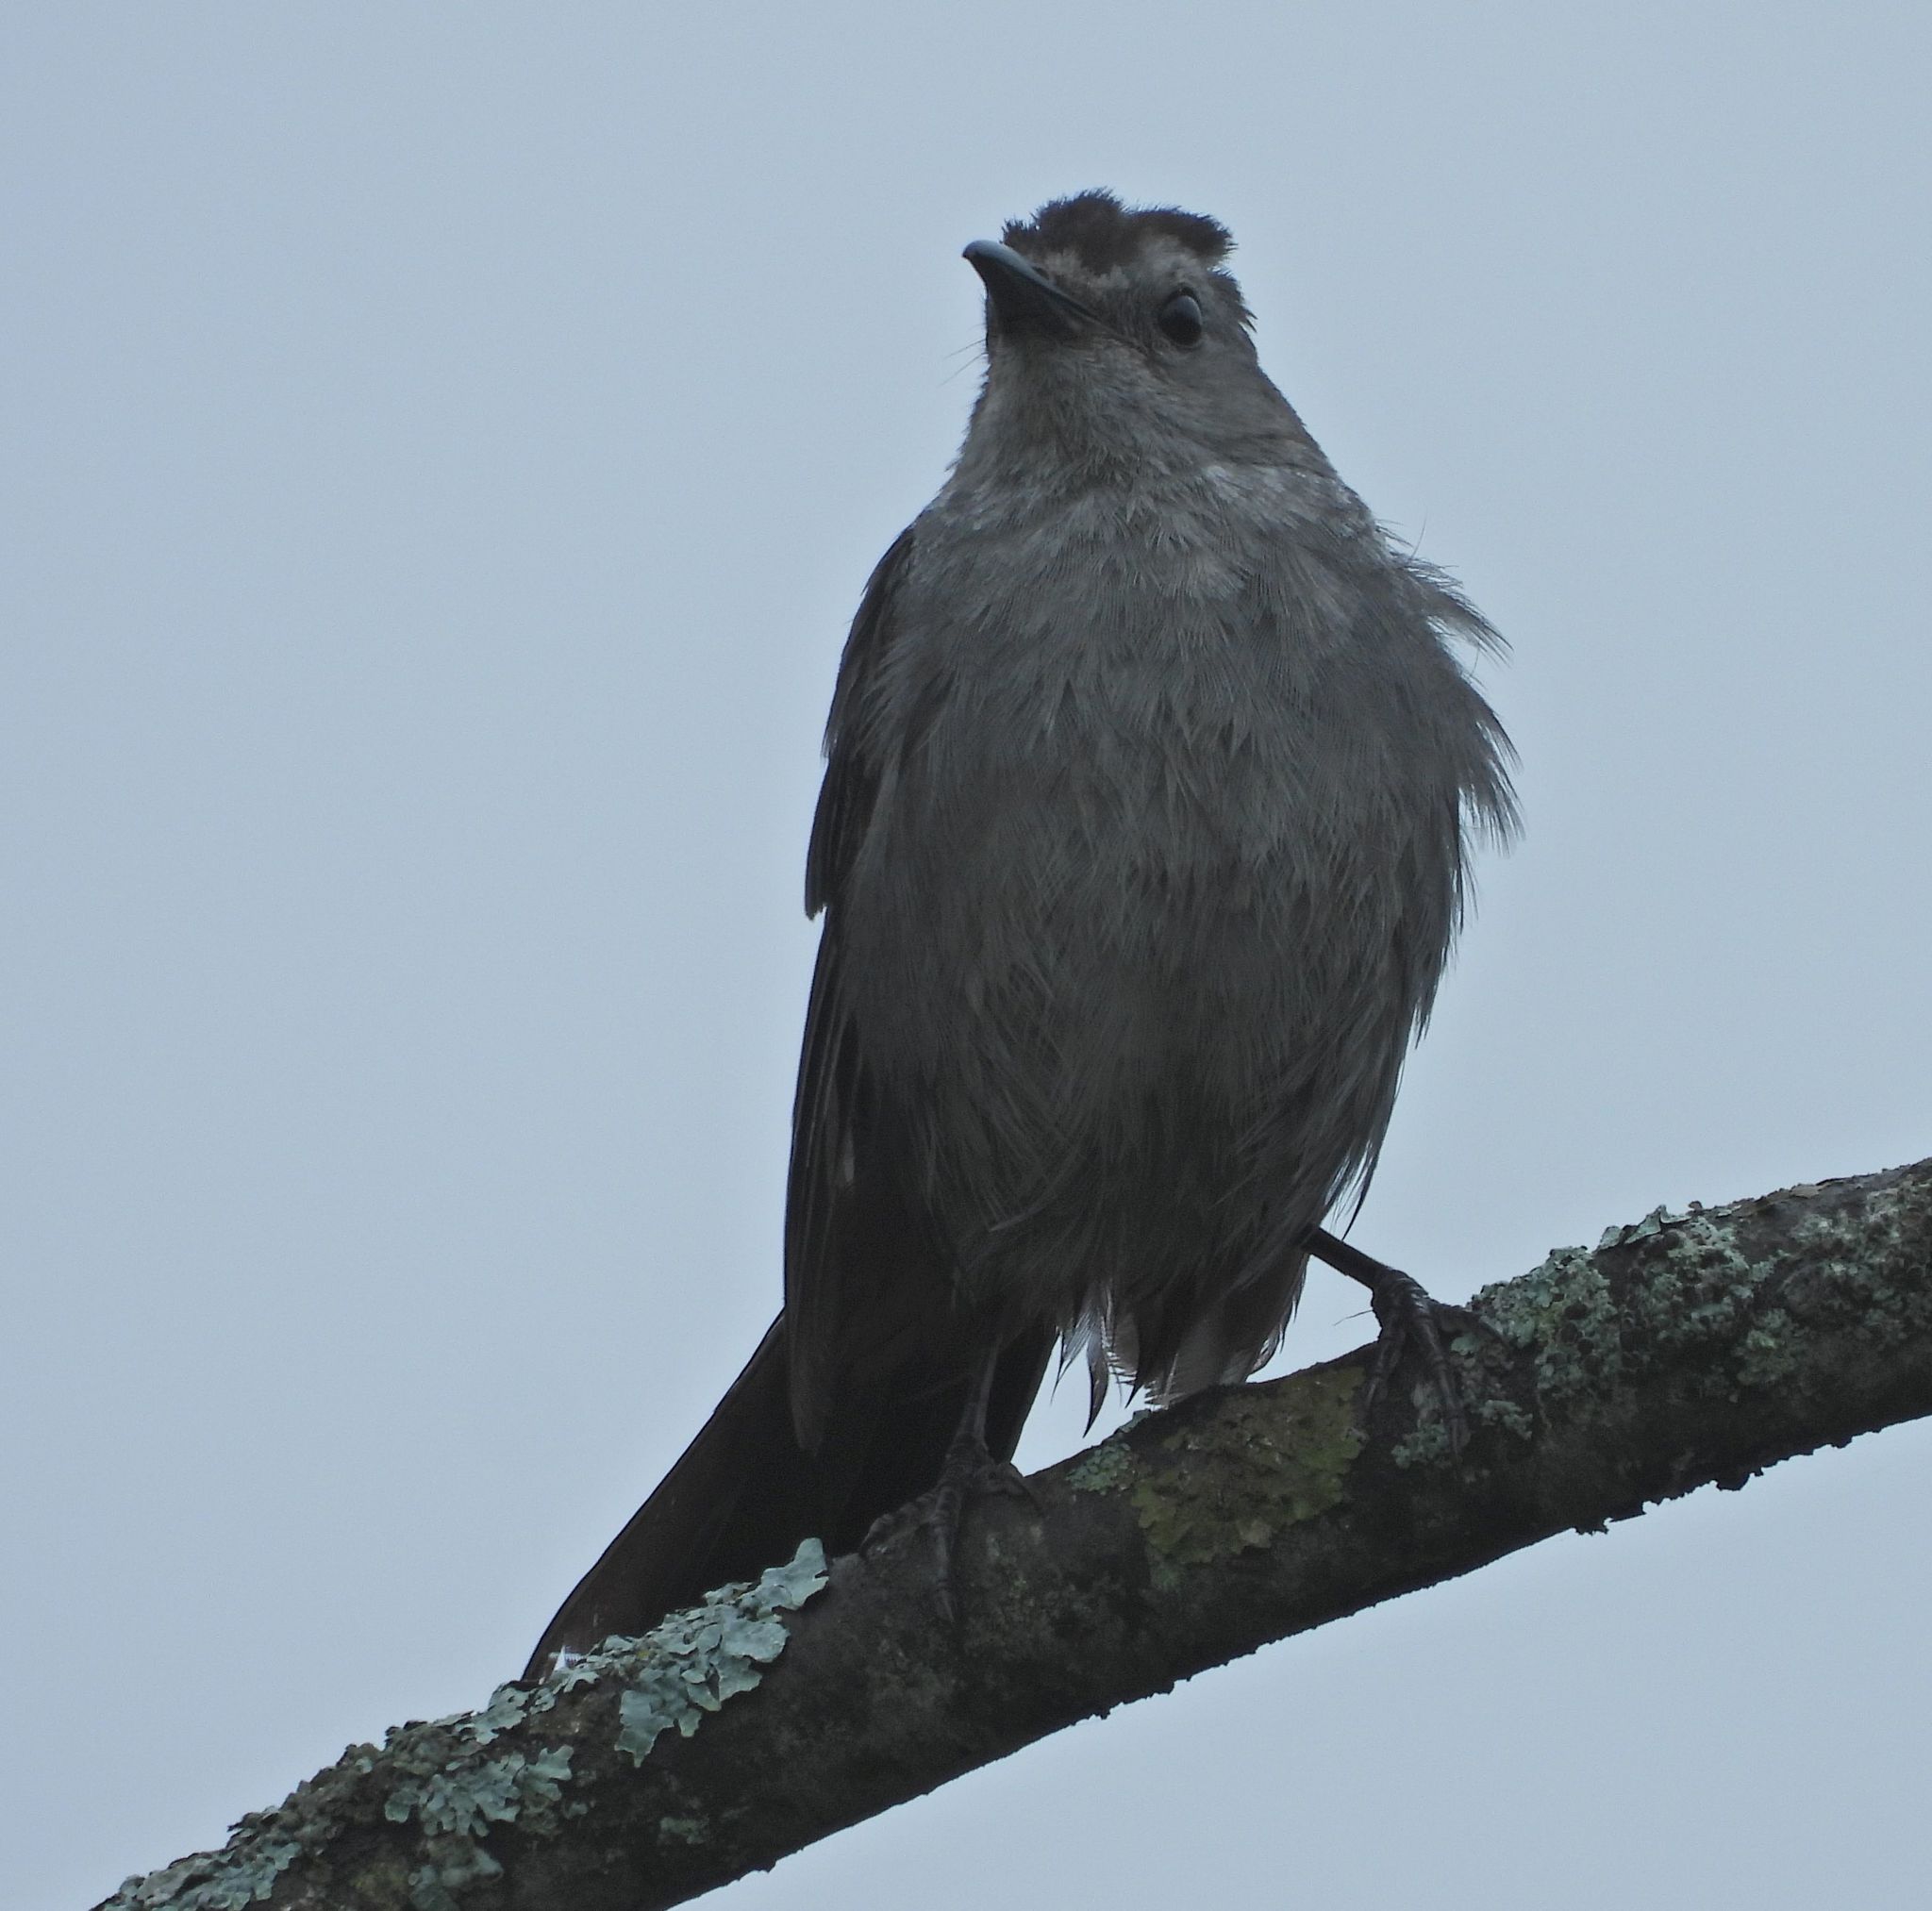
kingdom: Animalia
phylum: Chordata
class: Aves
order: Passeriformes
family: Mimidae
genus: Dumetella
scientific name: Dumetella carolinensis
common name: Gray catbird
